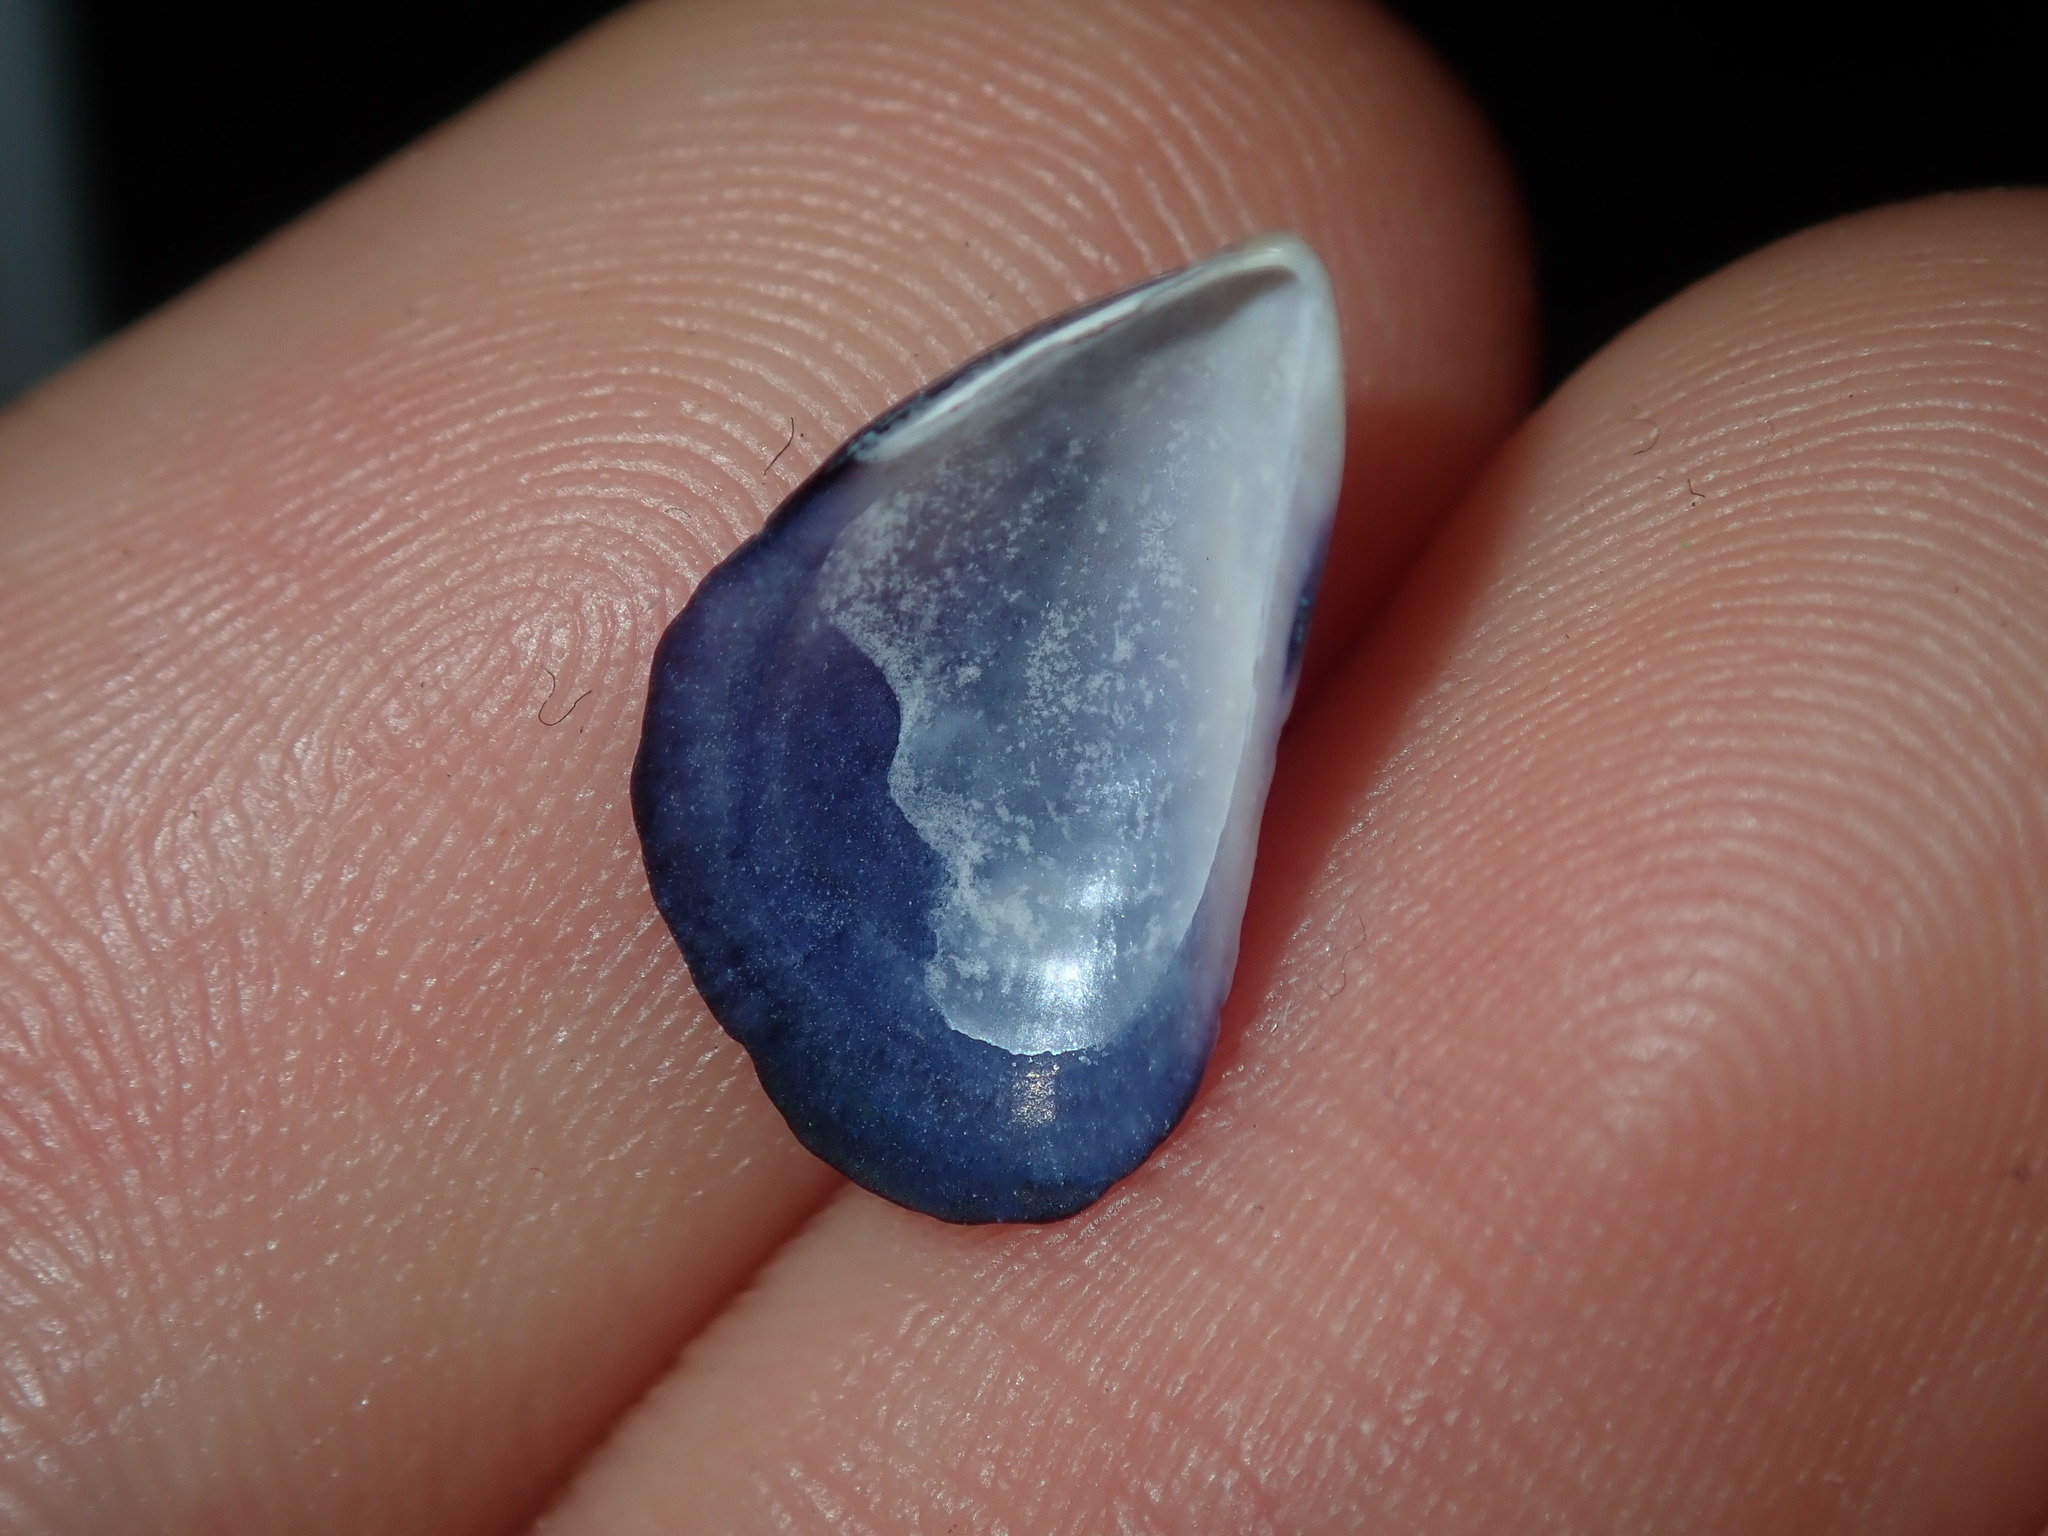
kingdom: Animalia
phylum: Mollusca
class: Bivalvia
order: Mytilida
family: Mytilidae
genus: Mytilus
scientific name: Mytilus
